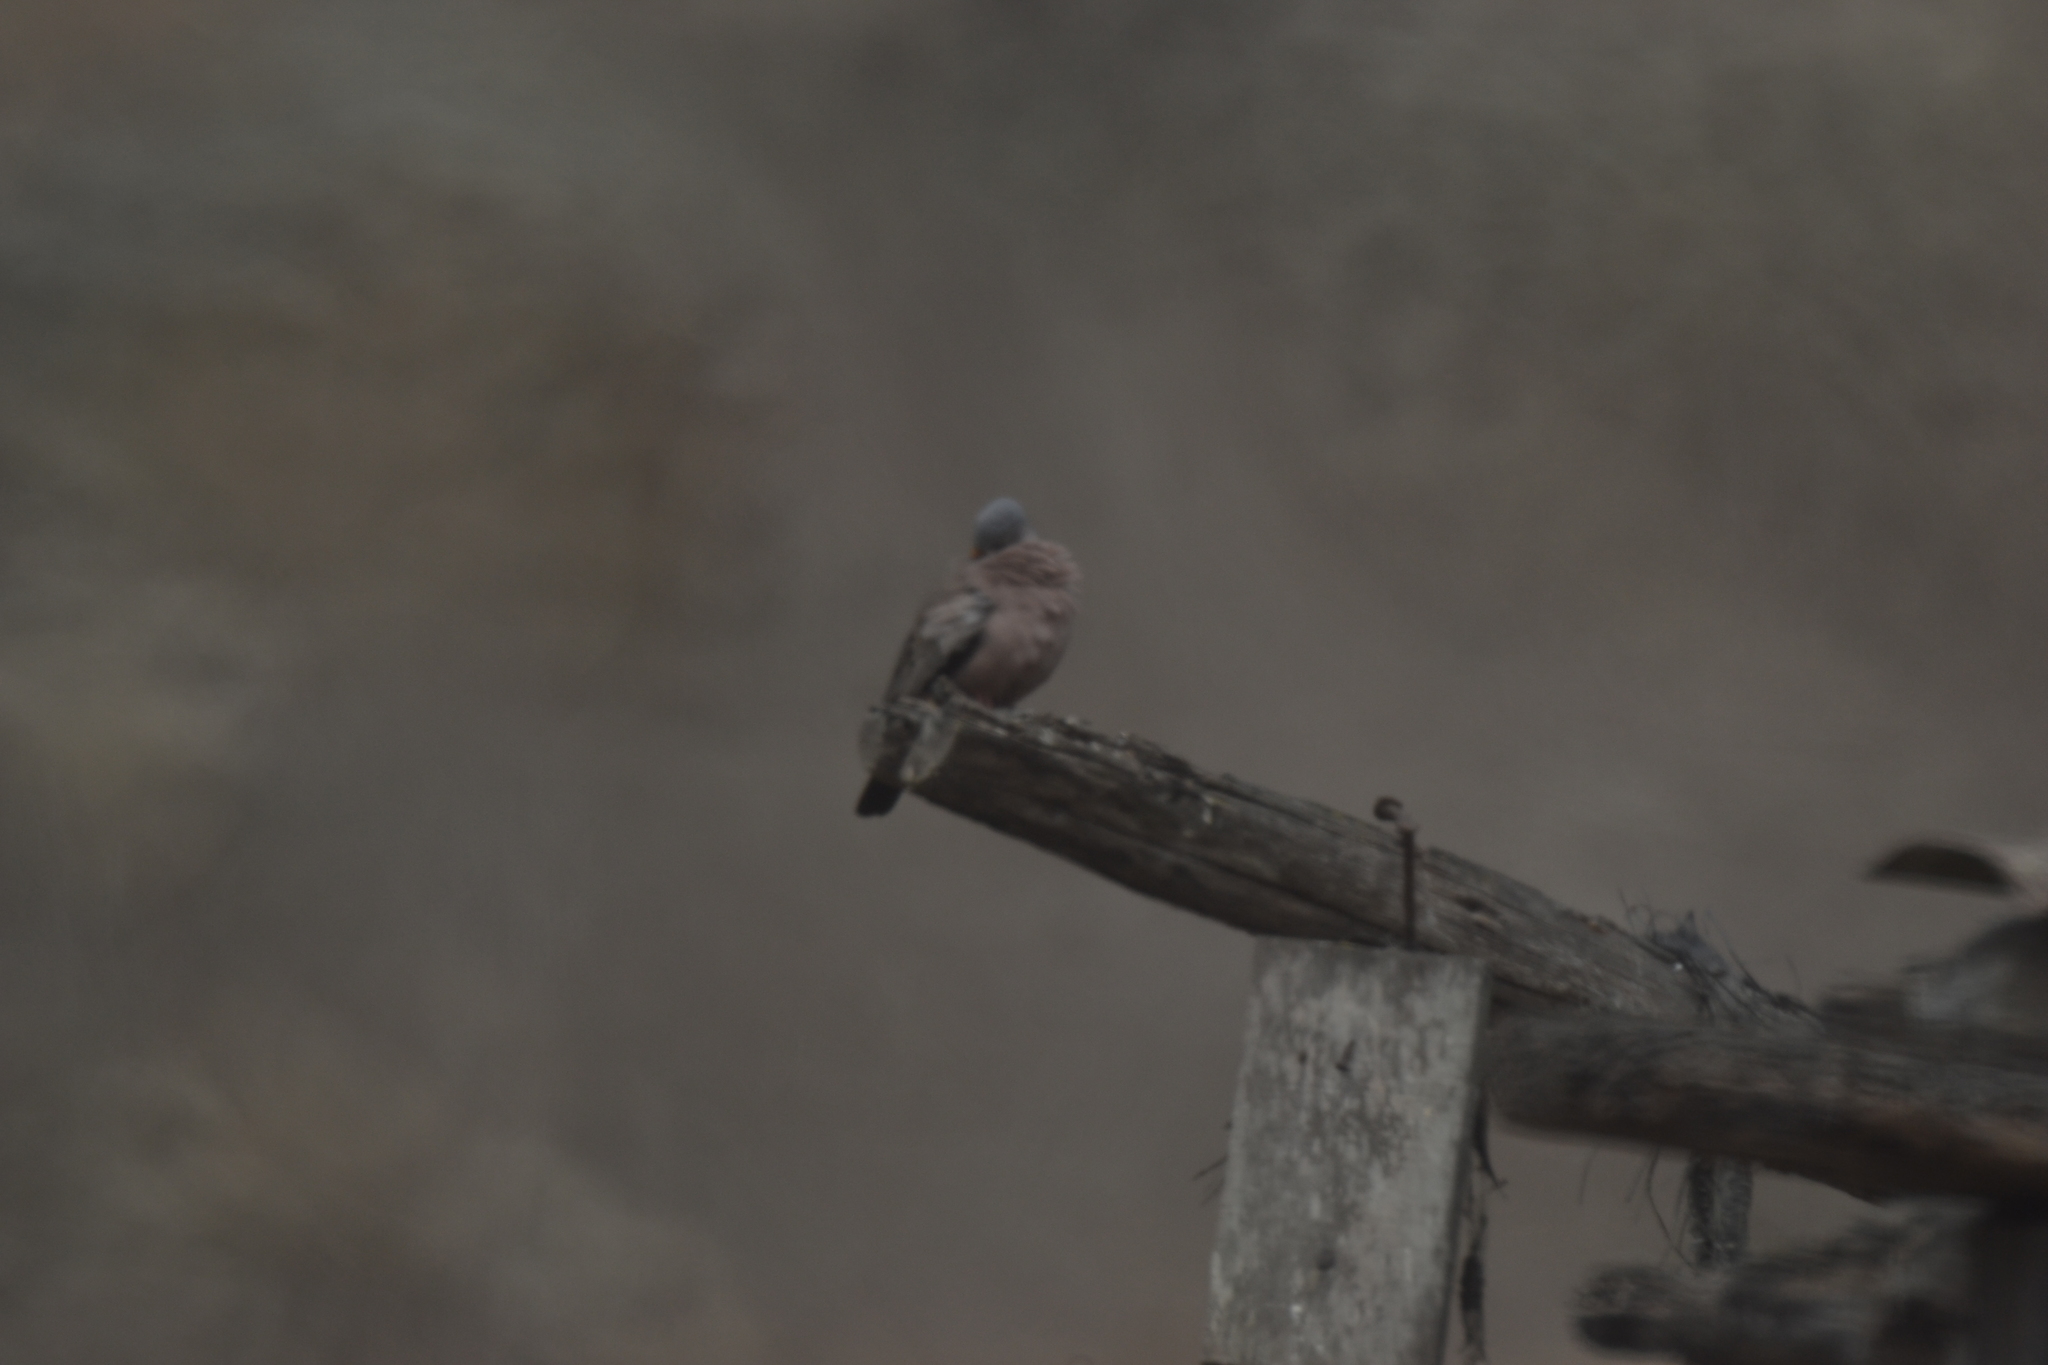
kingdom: Animalia
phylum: Chordata
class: Aves
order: Columbiformes
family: Columbidae
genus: Columbina
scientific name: Columbina cruziana
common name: Croaking ground dove
